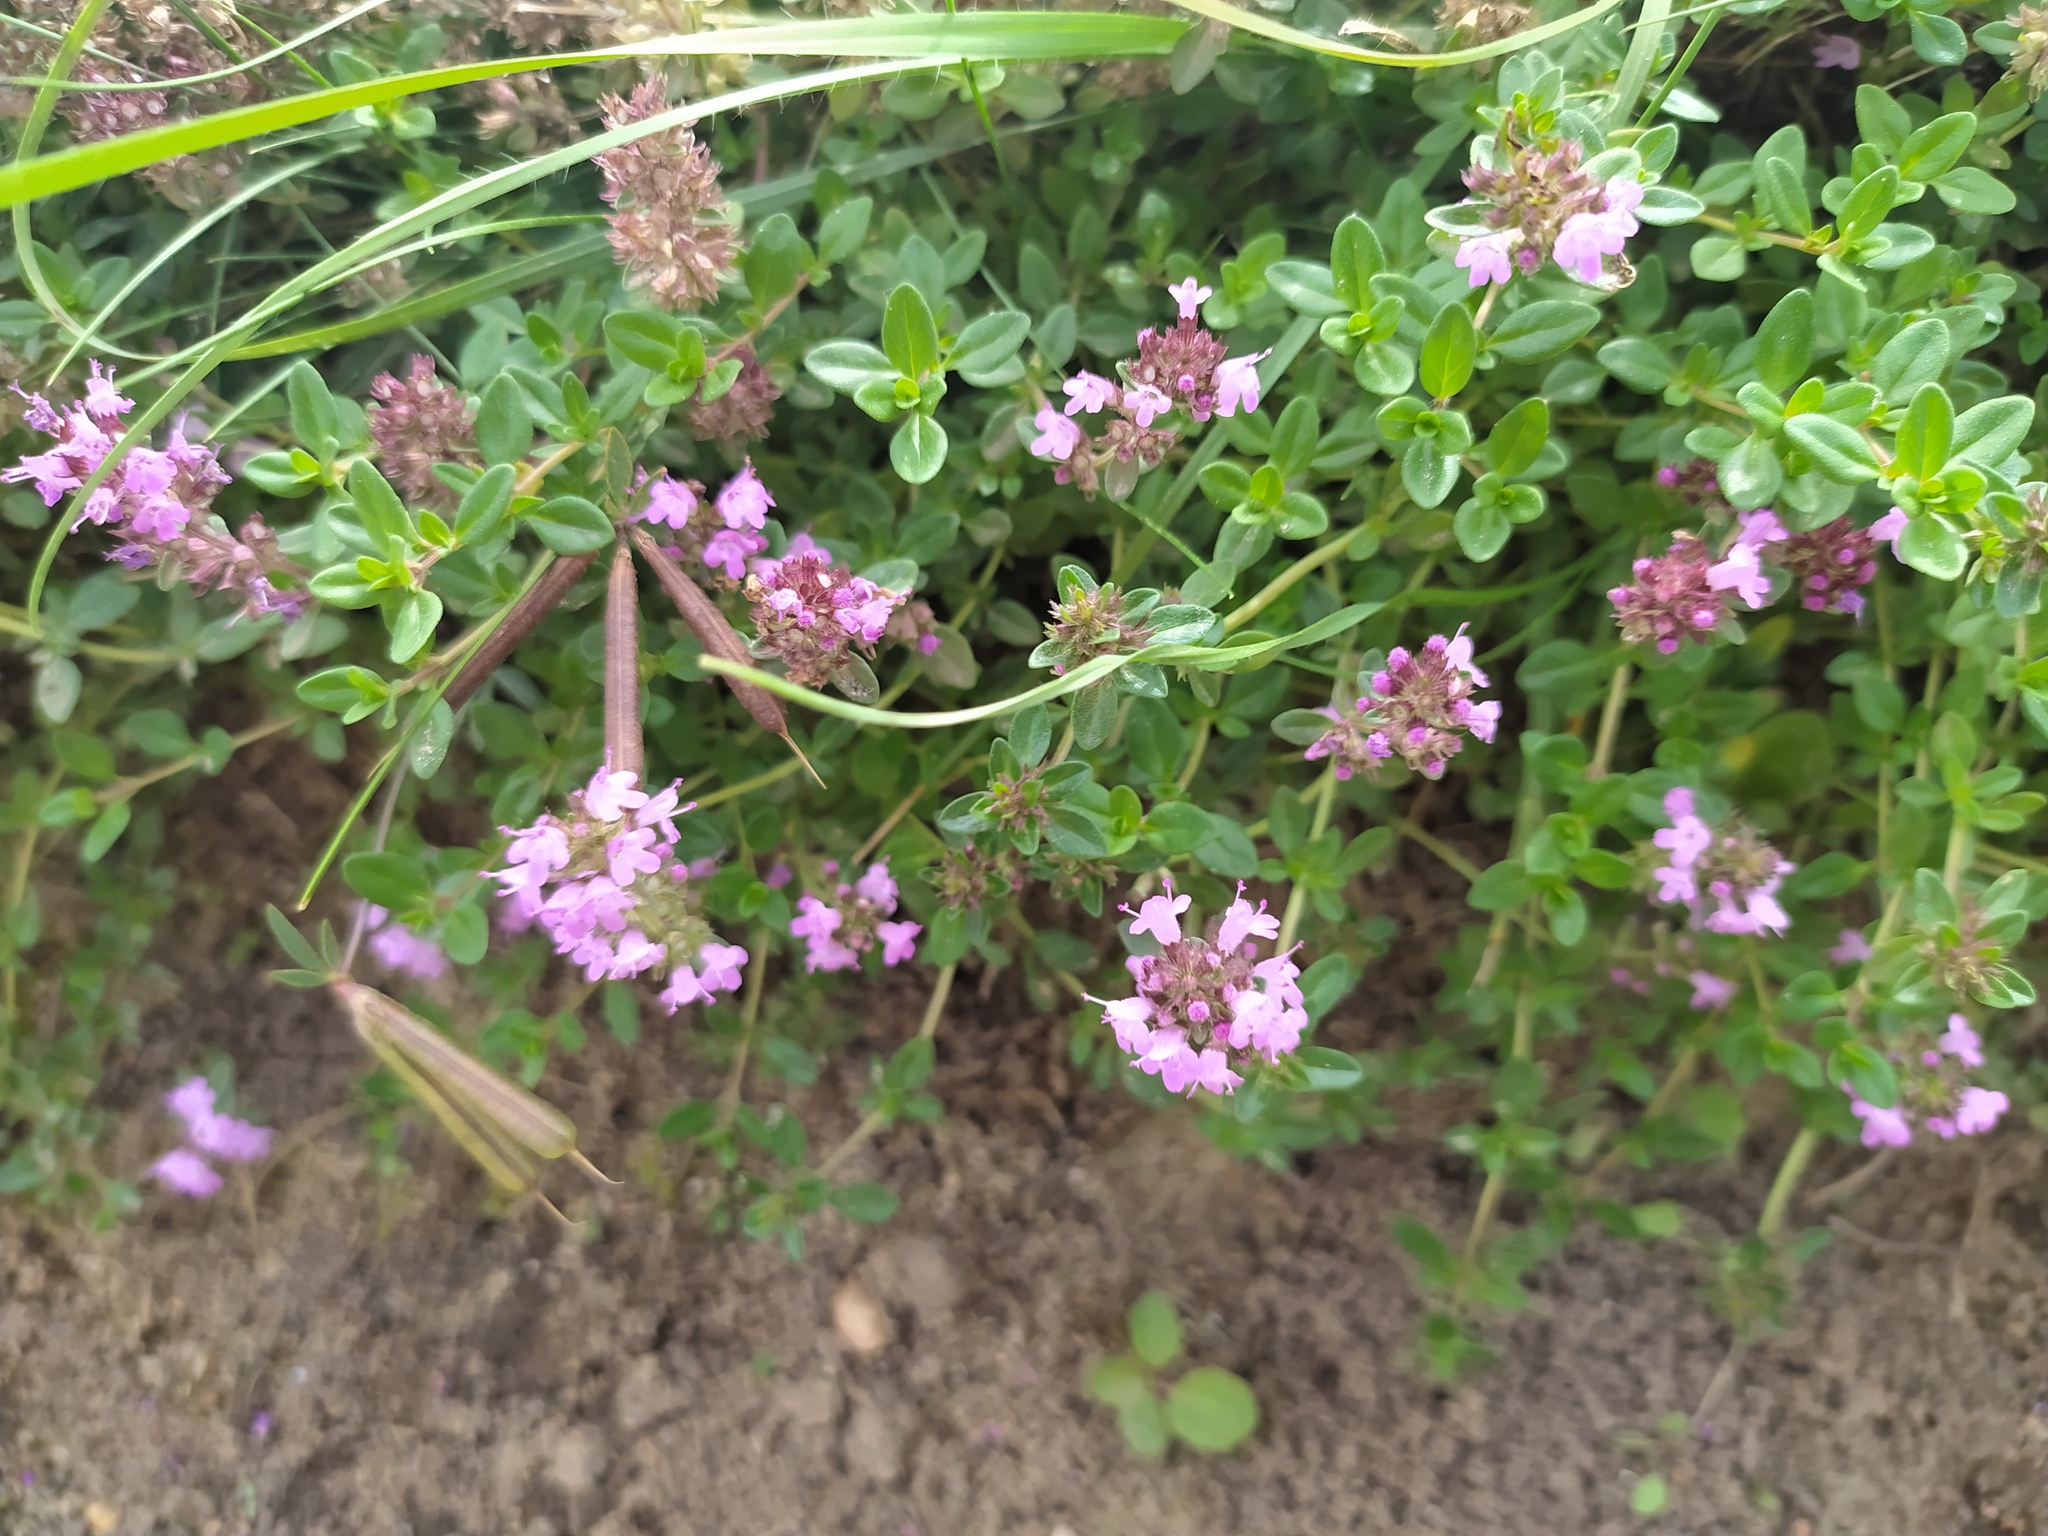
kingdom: Plantae
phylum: Tracheophyta
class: Magnoliopsida
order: Lamiales
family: Lamiaceae
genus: Thymus
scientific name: Thymus pulegioides
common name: Large thyme
